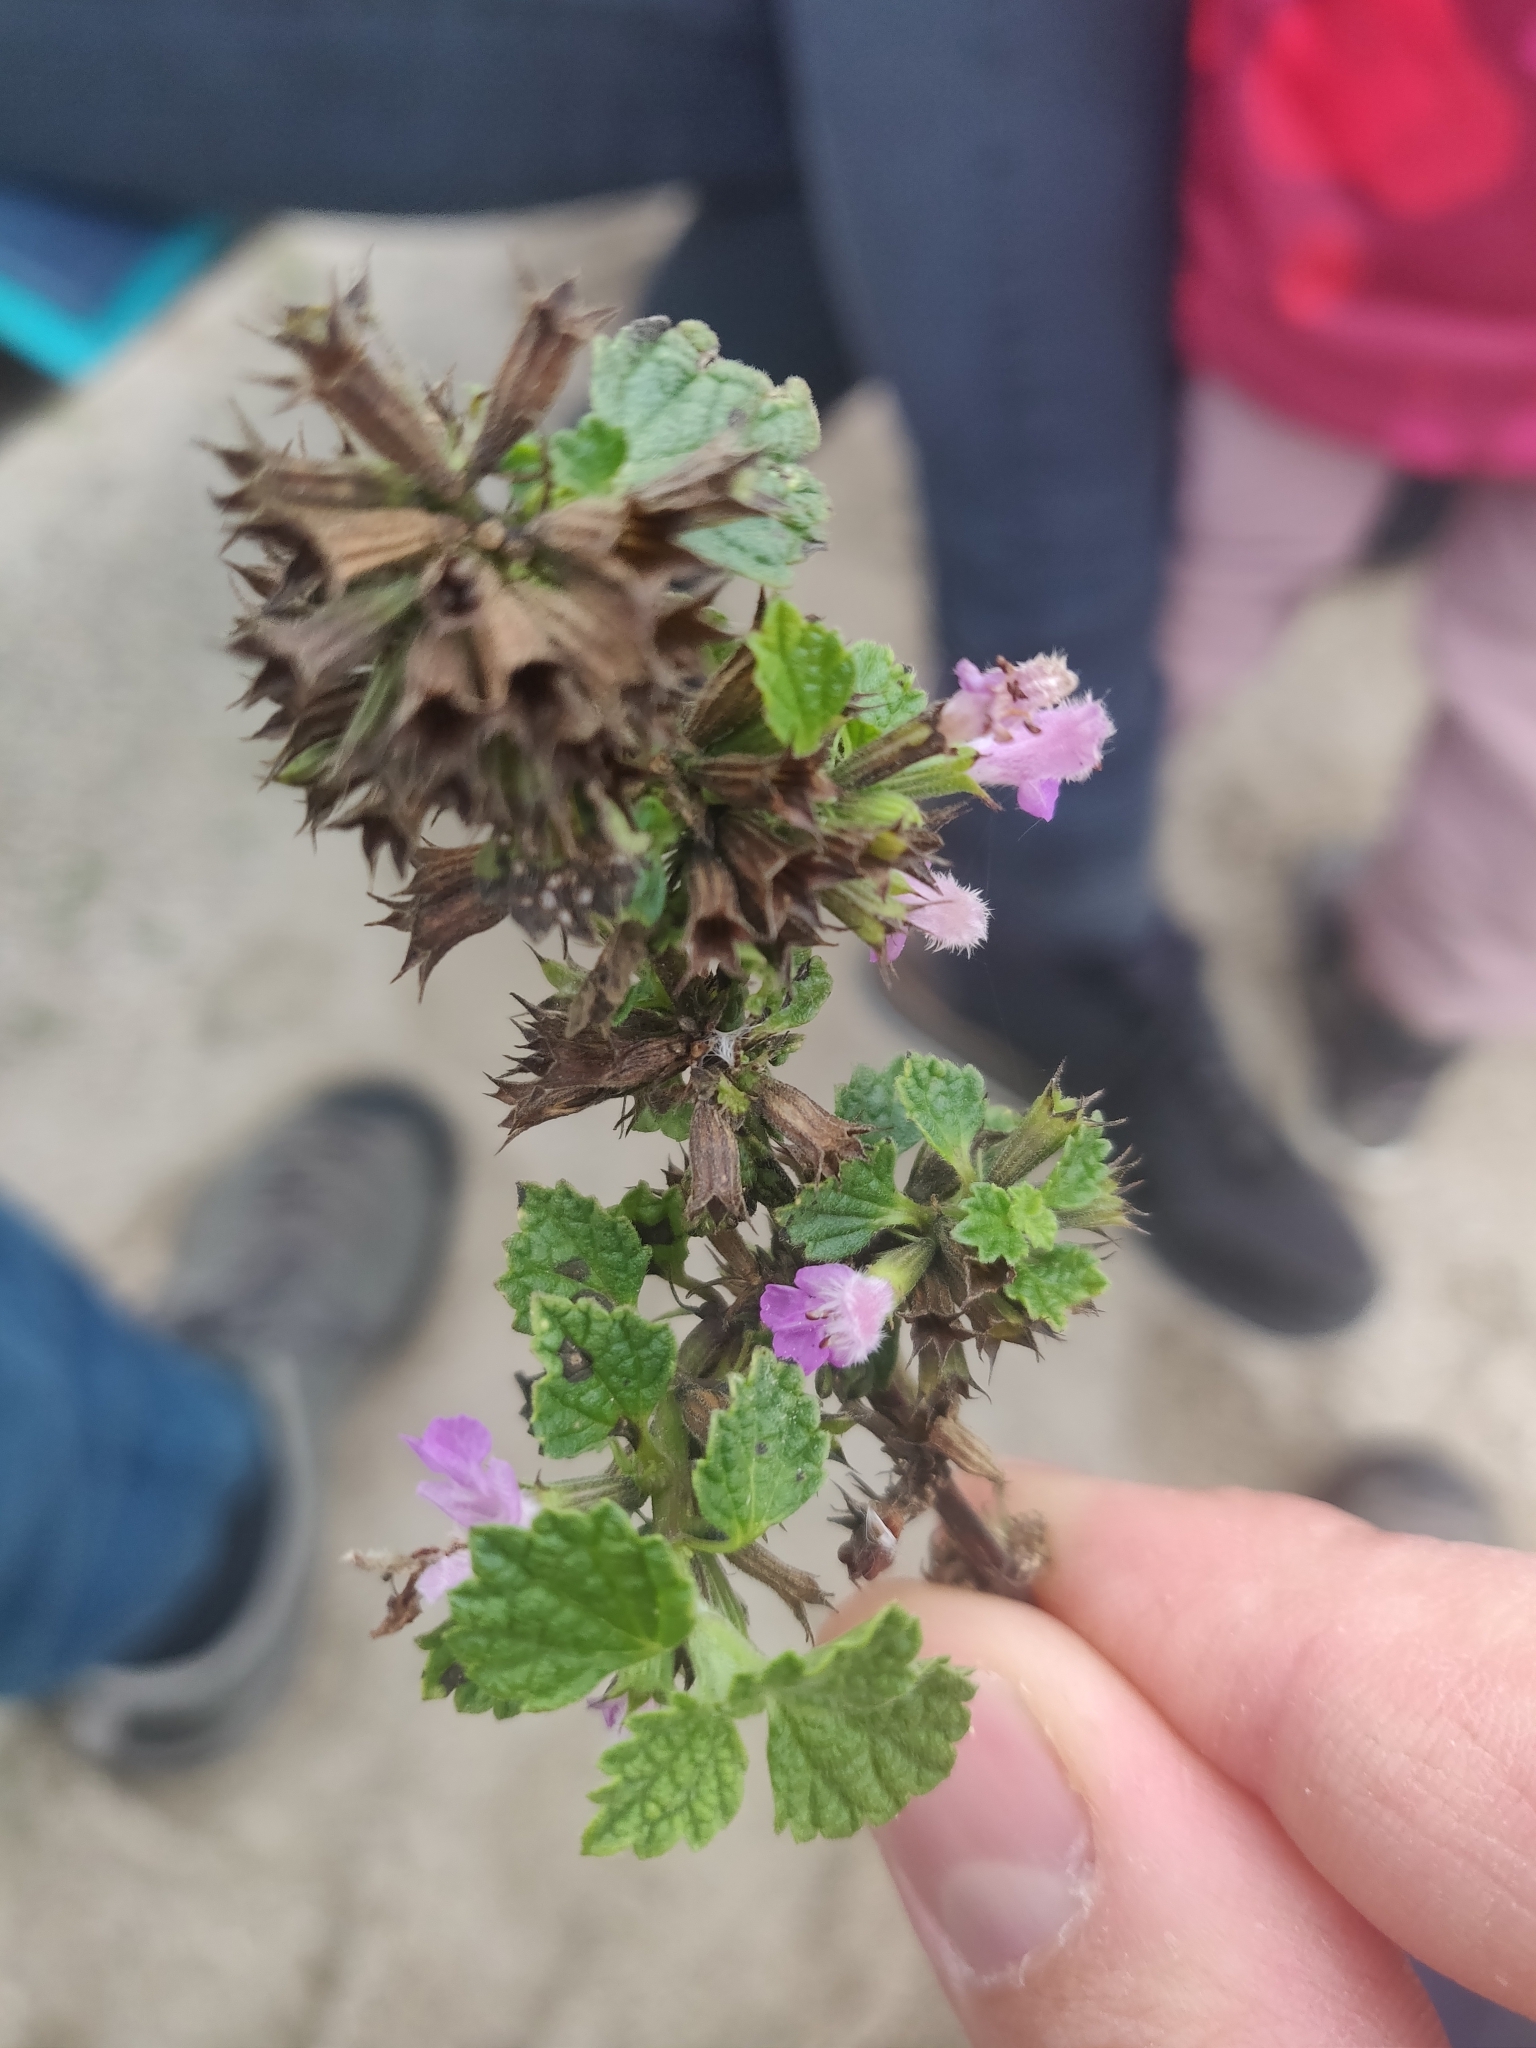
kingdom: Plantae
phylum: Tracheophyta
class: Magnoliopsida
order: Lamiales
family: Lamiaceae
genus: Ballota
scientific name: Ballota nigra
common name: Black horehound
